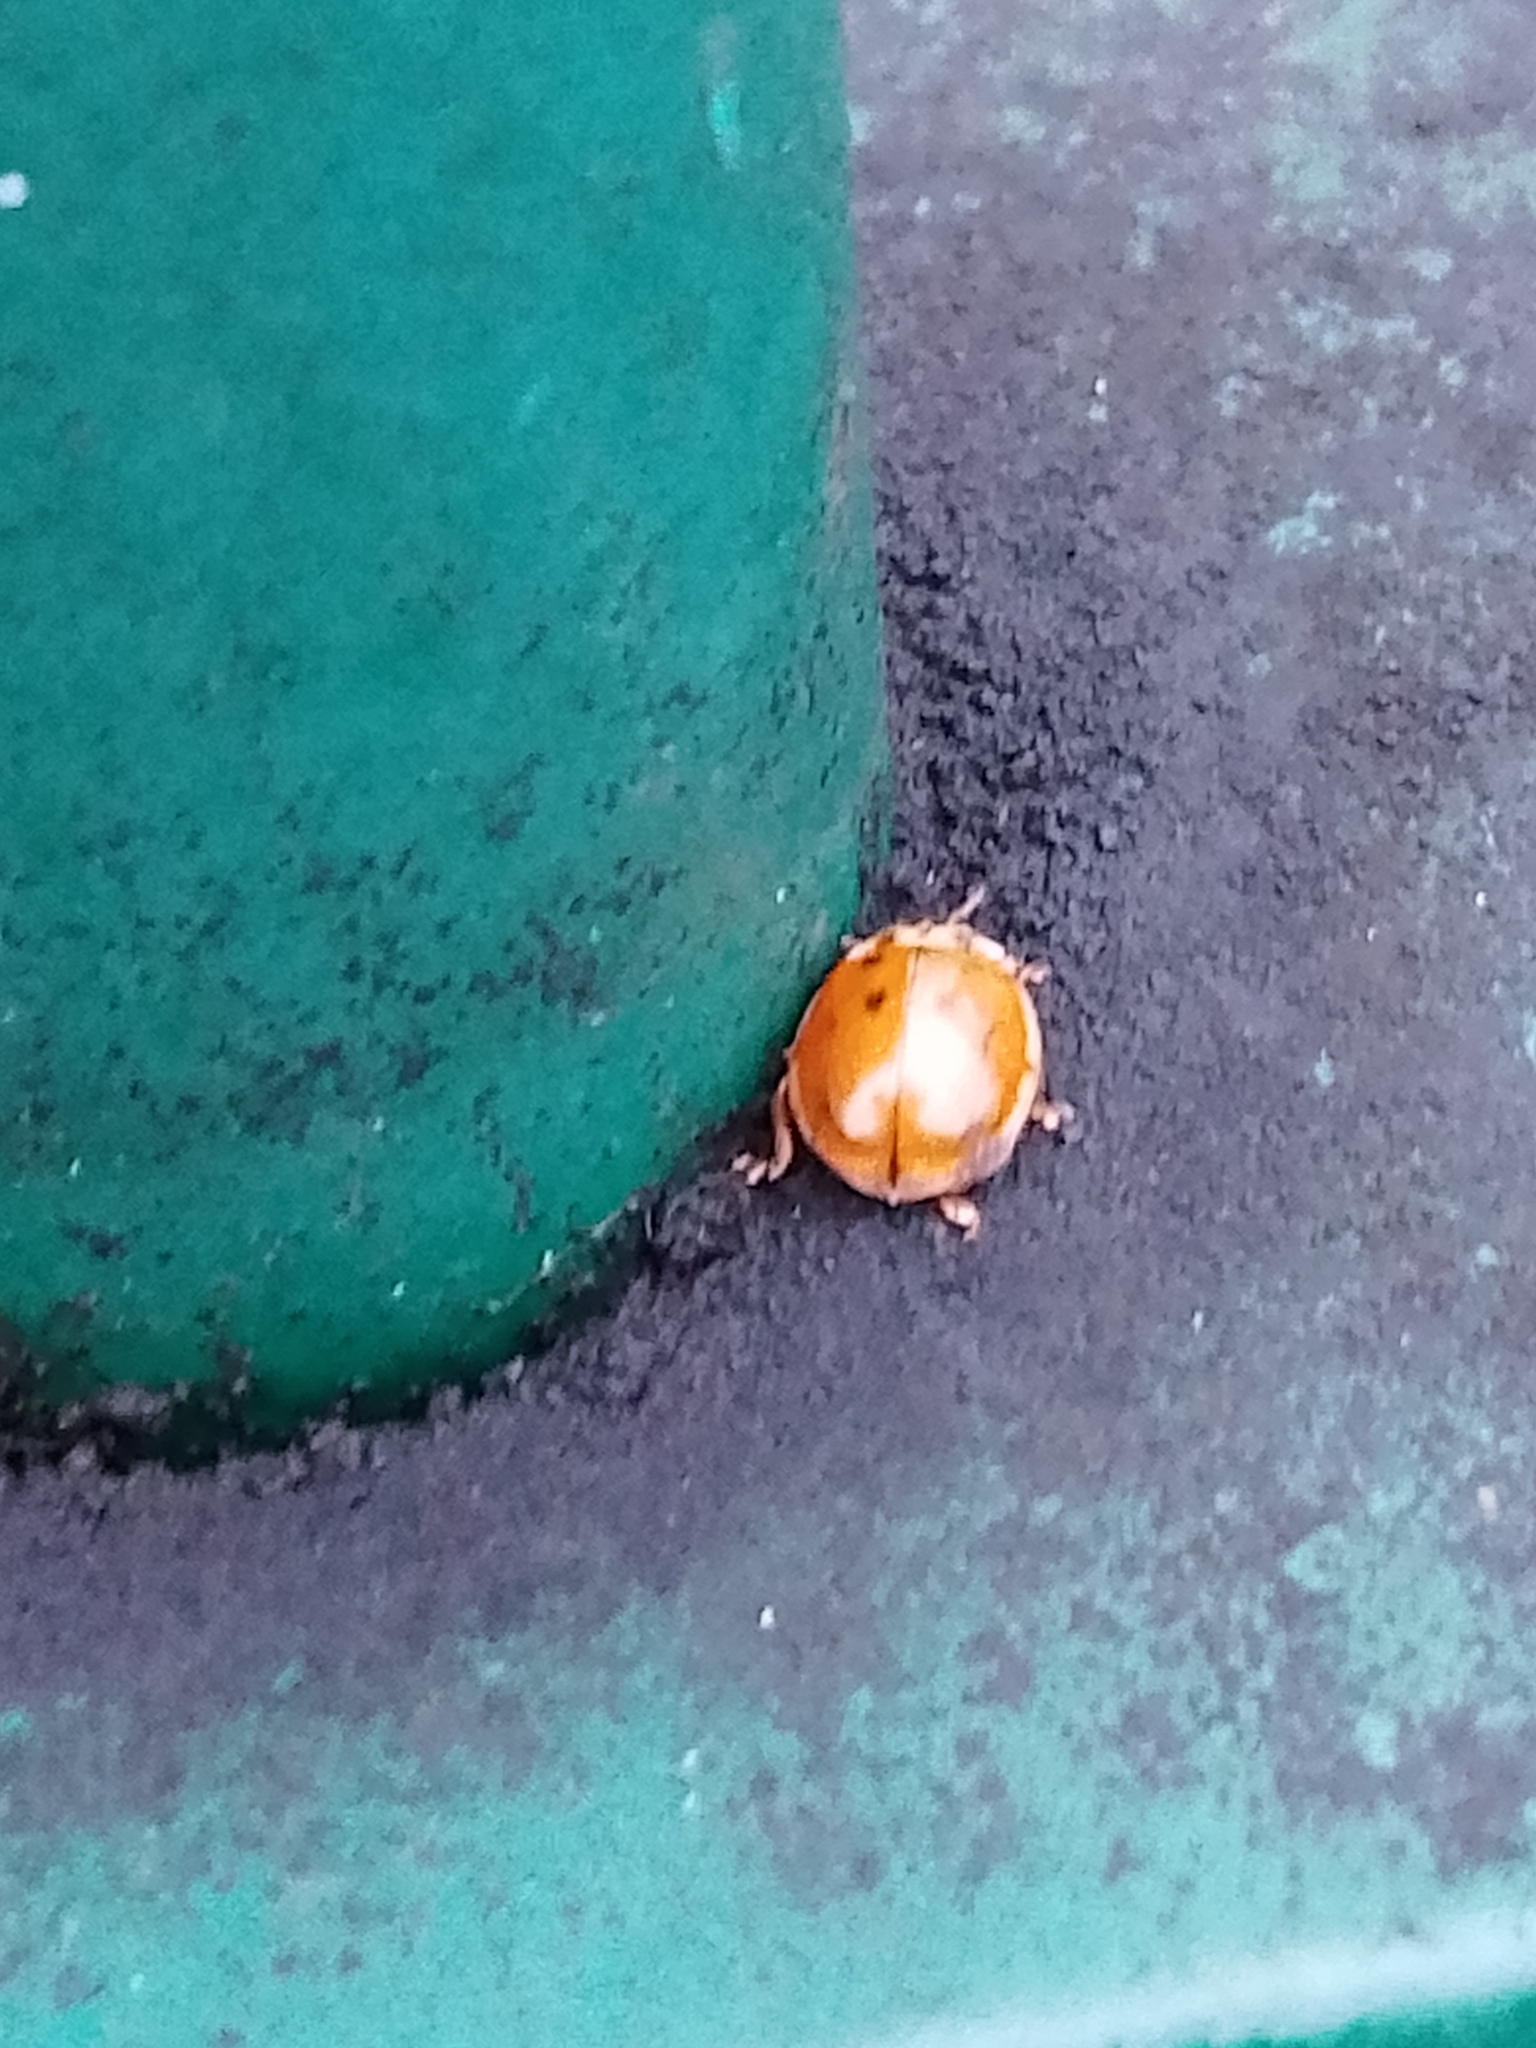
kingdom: Animalia
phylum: Arthropoda
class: Insecta
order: Coleoptera
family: Coccinellidae
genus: Harmonia
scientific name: Harmonia axyridis
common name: Harlequin ladybird
